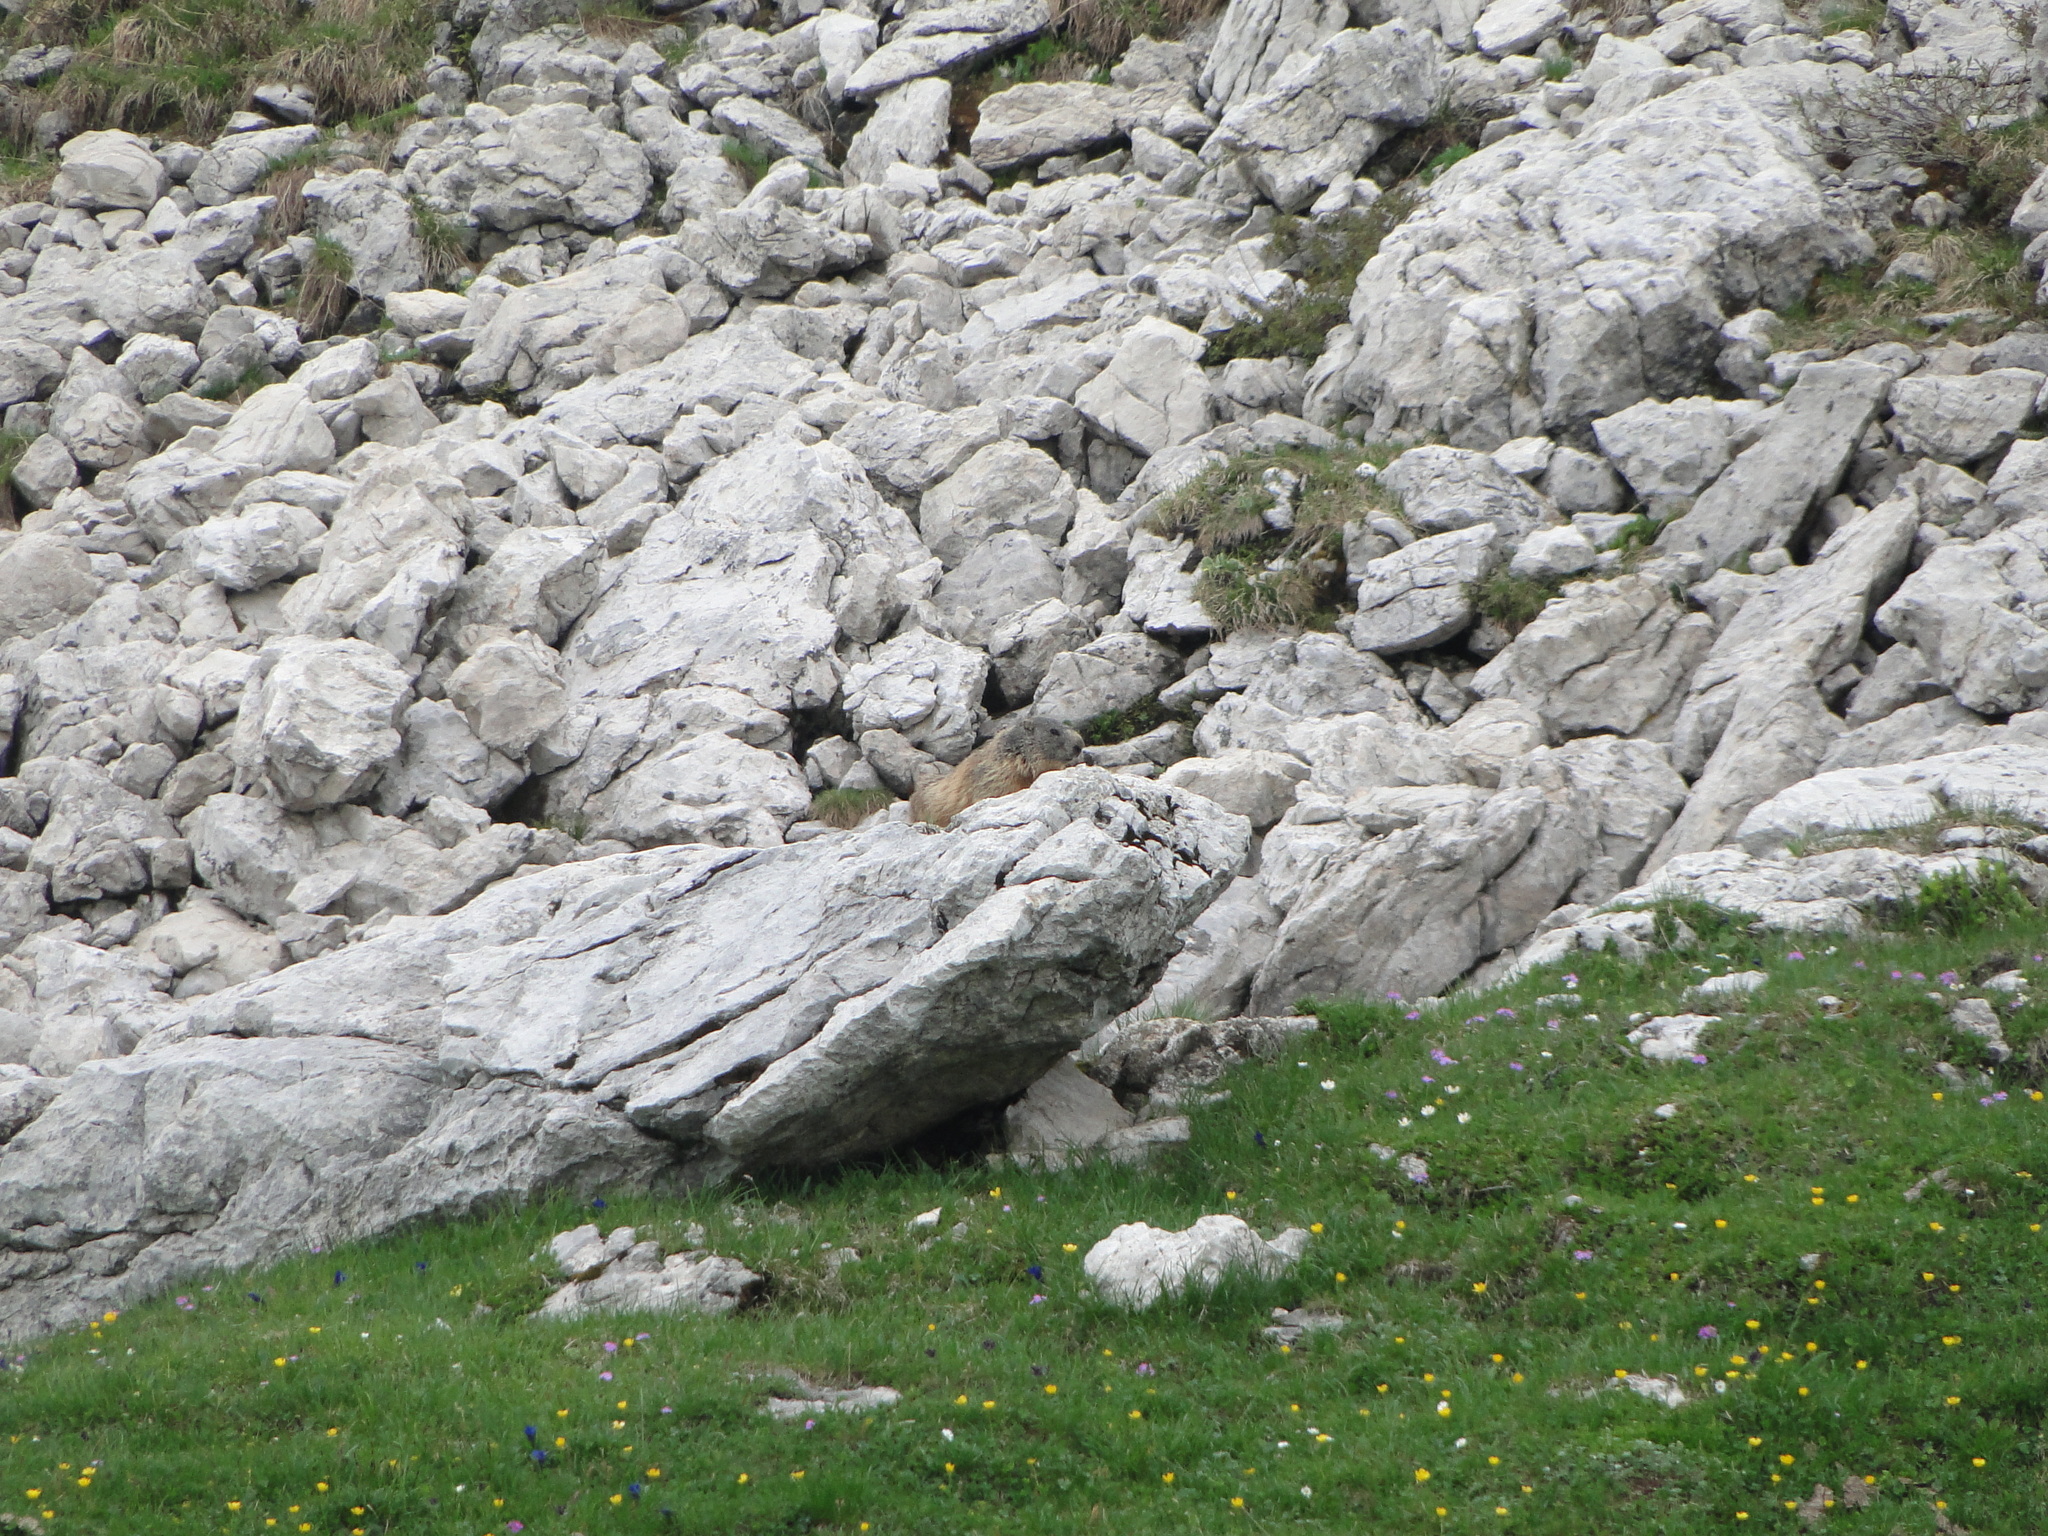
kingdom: Animalia
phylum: Chordata
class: Mammalia
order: Rodentia
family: Sciuridae
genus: Marmota
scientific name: Marmota marmota
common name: Alpine marmot
